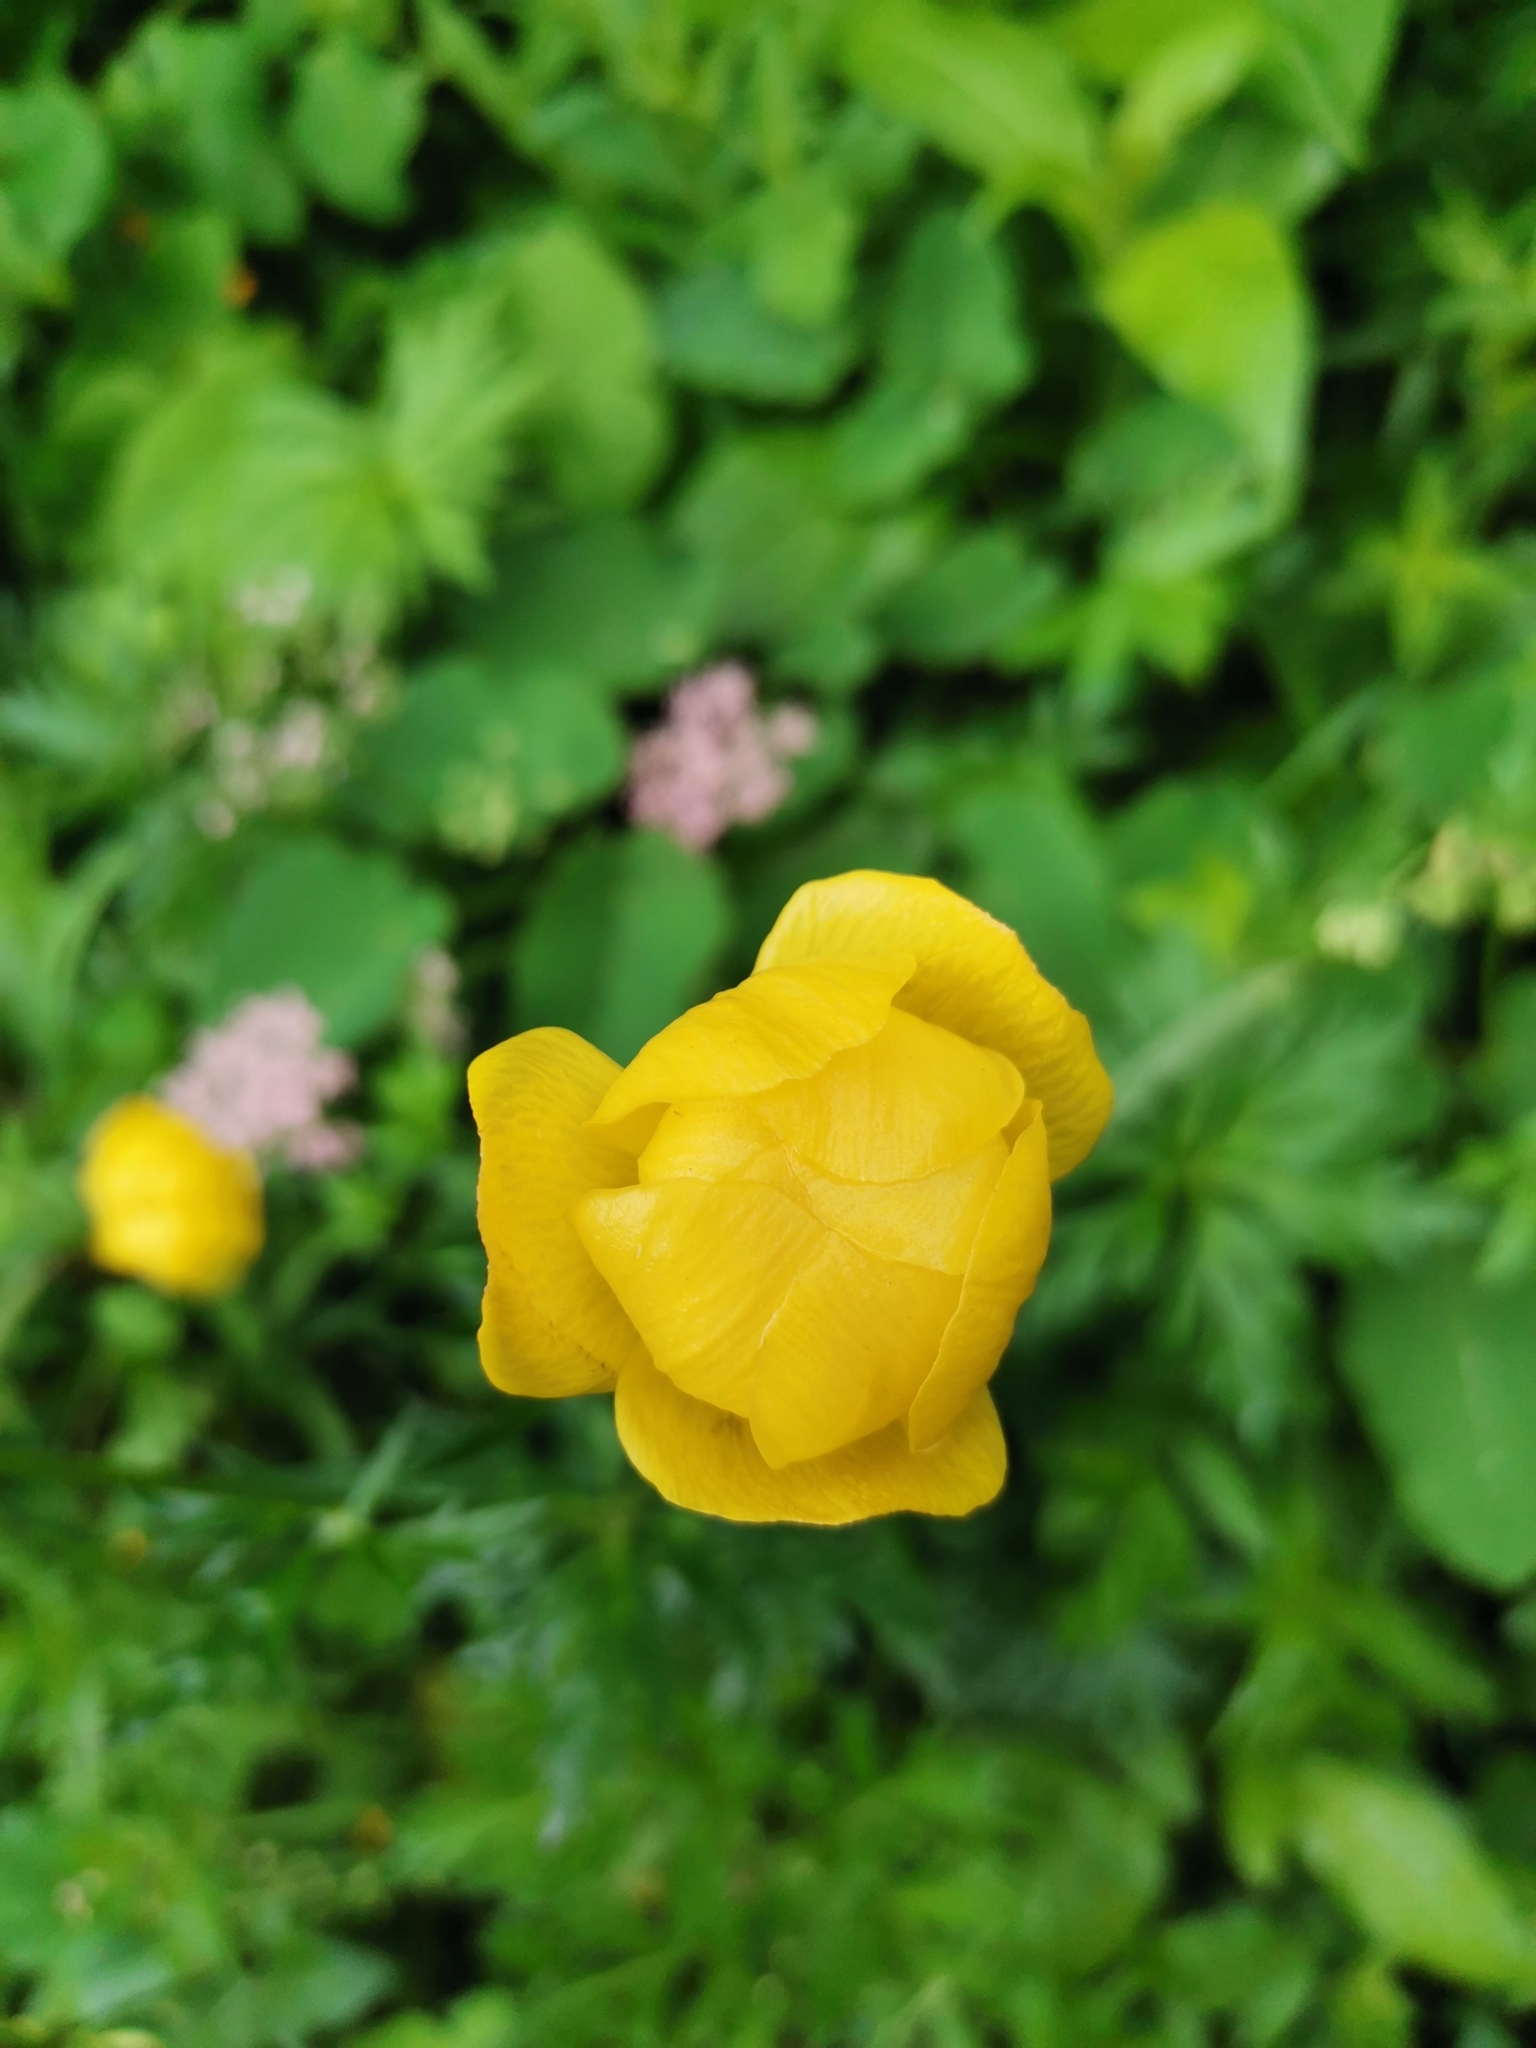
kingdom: Plantae
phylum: Tracheophyta
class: Magnoliopsida
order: Ranunculales
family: Ranunculaceae
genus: Trollius
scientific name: Trollius europaeus
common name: European globeflower
